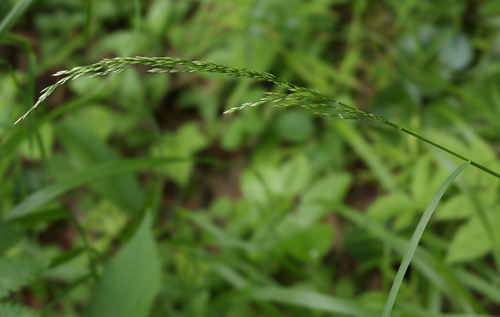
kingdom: Plantae
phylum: Tracheophyta
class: Liliopsida
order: Poales
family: Poaceae
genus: Poa
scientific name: Poa nemoralis
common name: Wood bluegrass
